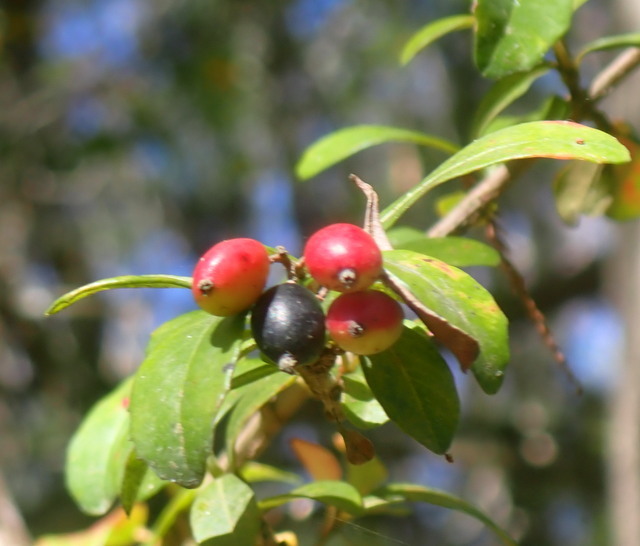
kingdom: Plantae
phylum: Tracheophyta
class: Magnoliopsida
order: Dipsacales
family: Viburnaceae
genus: Viburnum
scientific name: Viburnum obovatum
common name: Walter's viburnum
